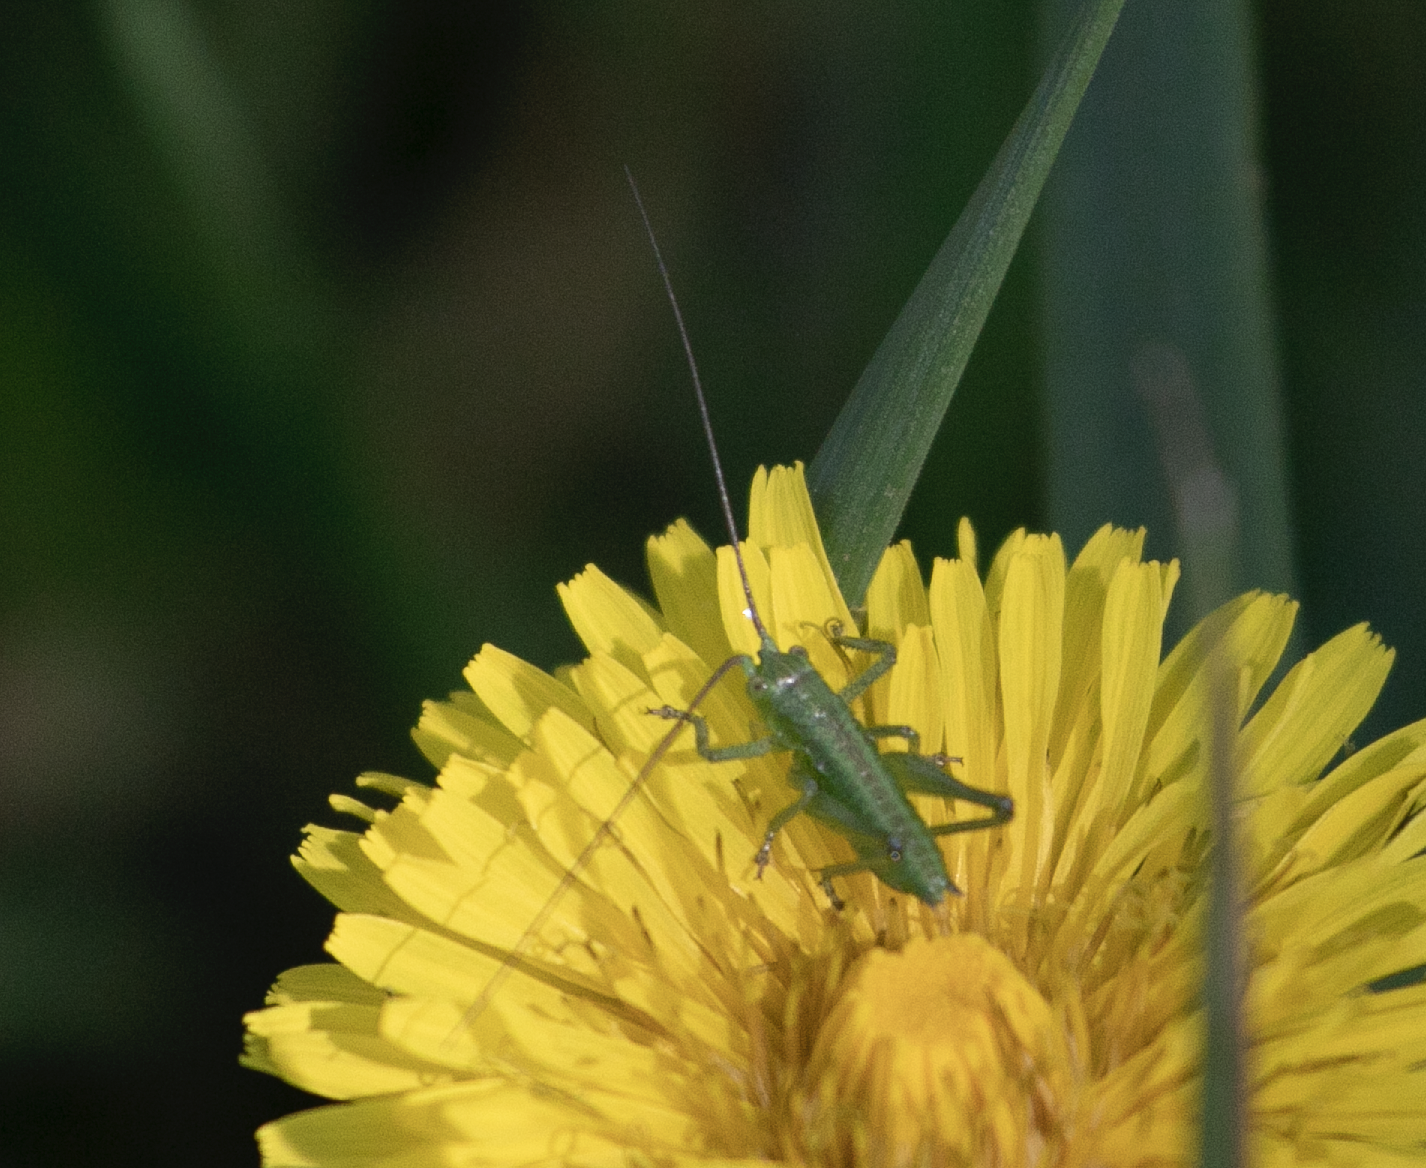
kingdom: Animalia
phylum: Arthropoda
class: Insecta
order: Orthoptera
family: Tettigoniidae
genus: Tettigonia
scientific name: Tettigonia viridissima
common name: Great green bush-cricket
